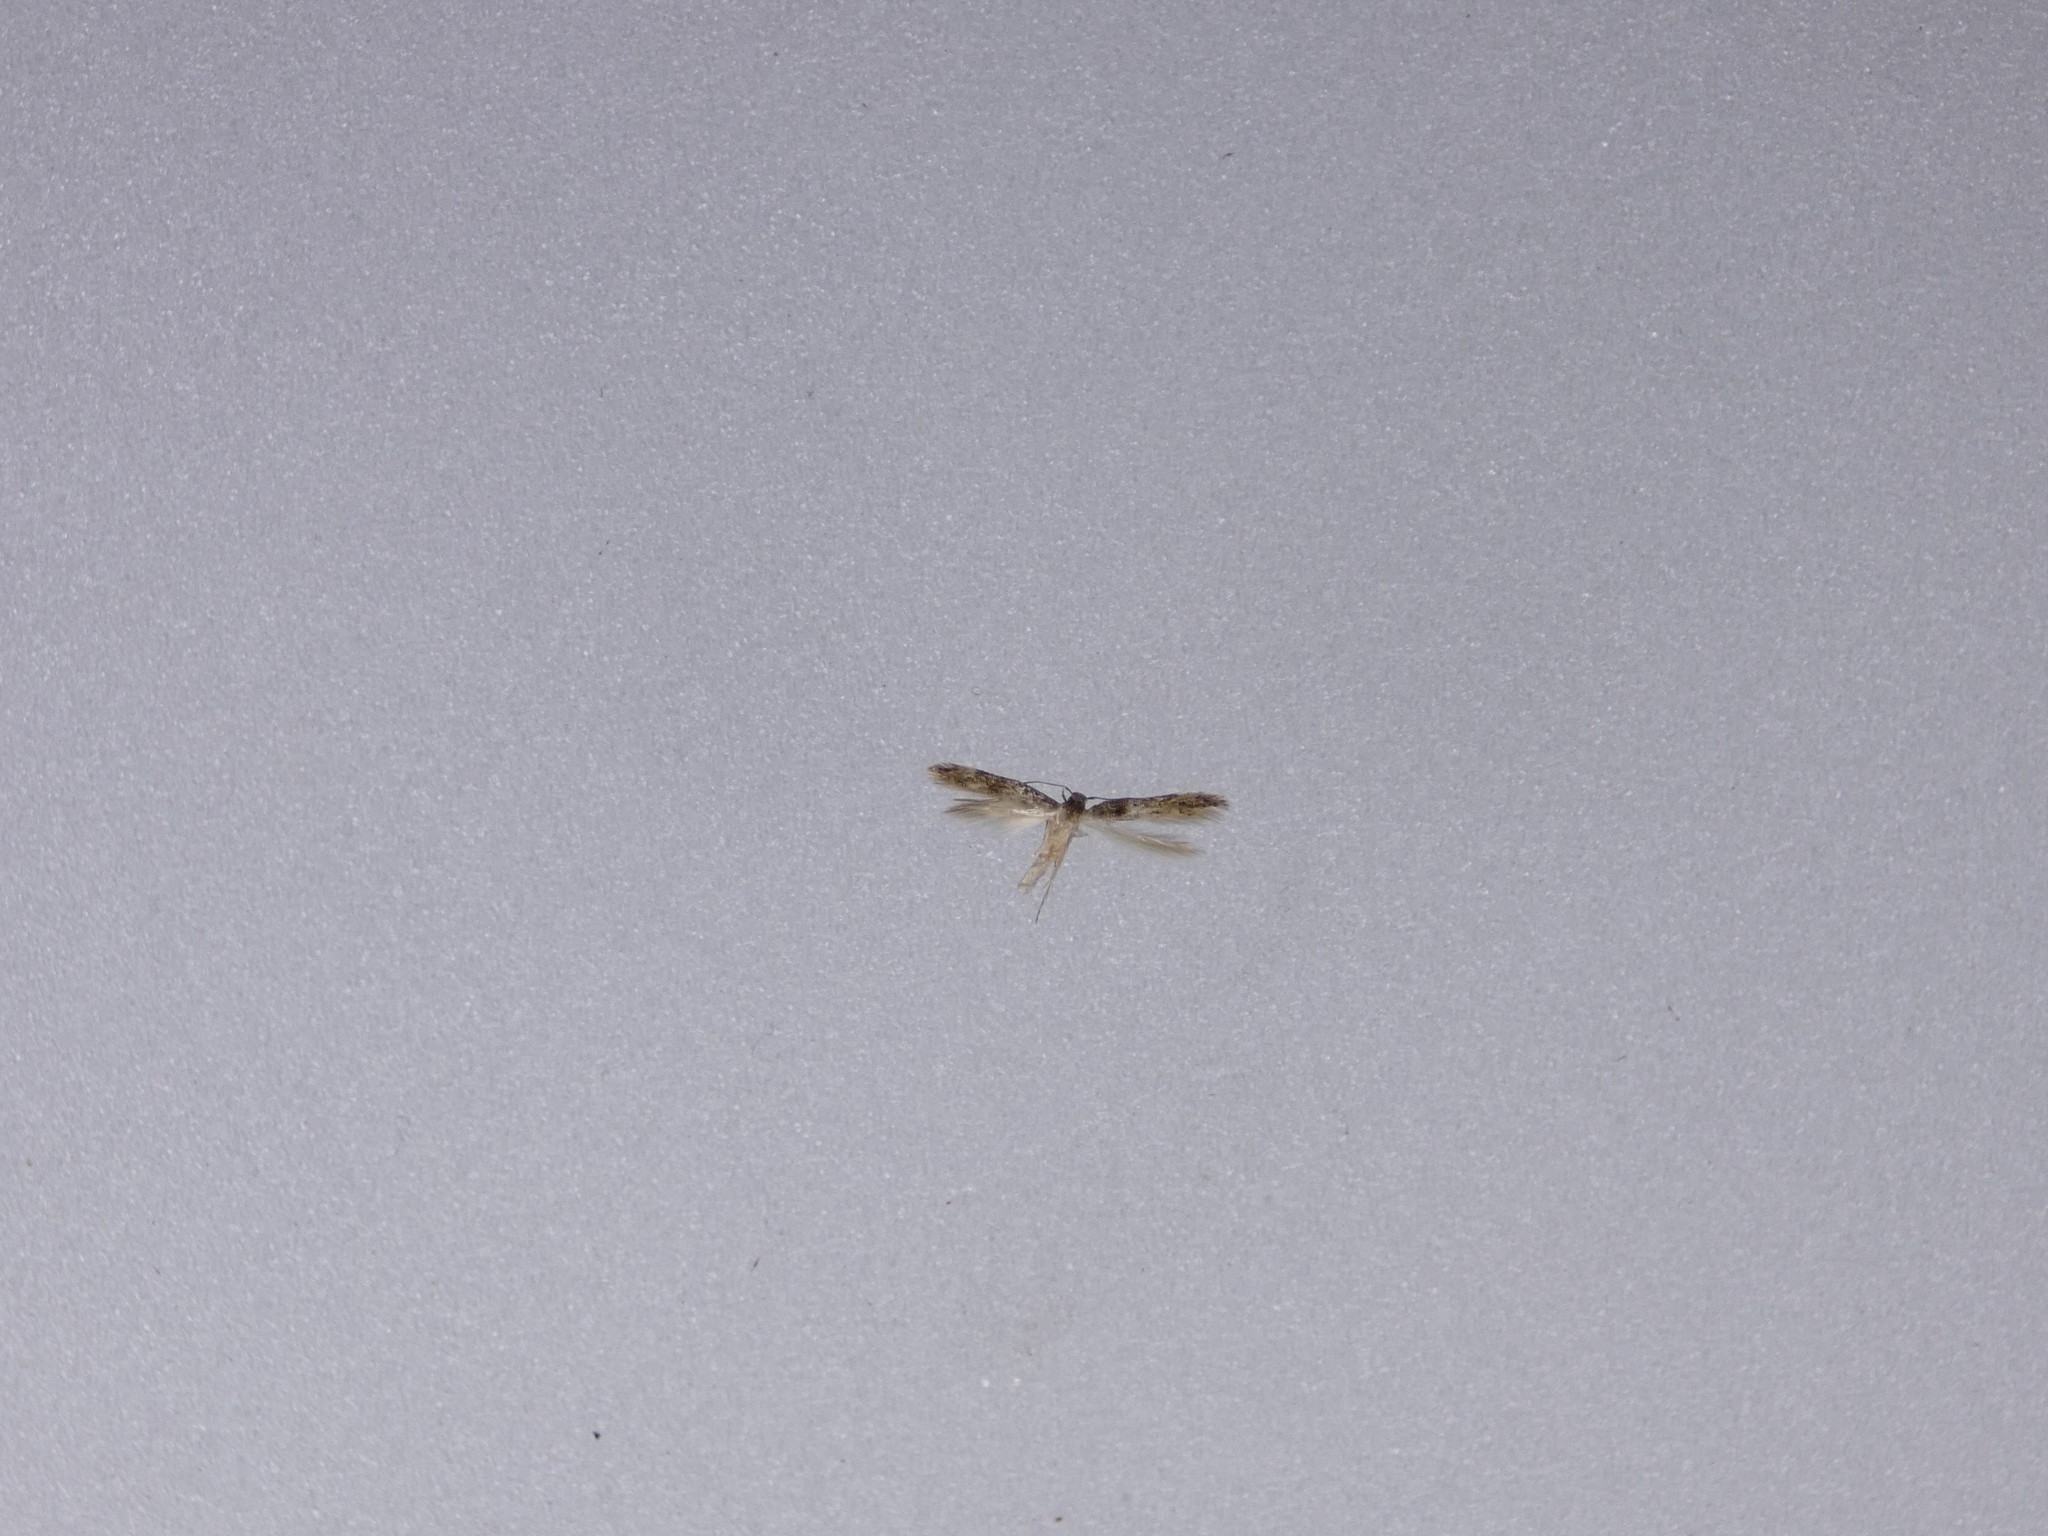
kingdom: Animalia
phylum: Arthropoda
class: Insecta
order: Lepidoptera
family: Elachistidae
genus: Microcolona
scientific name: Microcolona limodes
